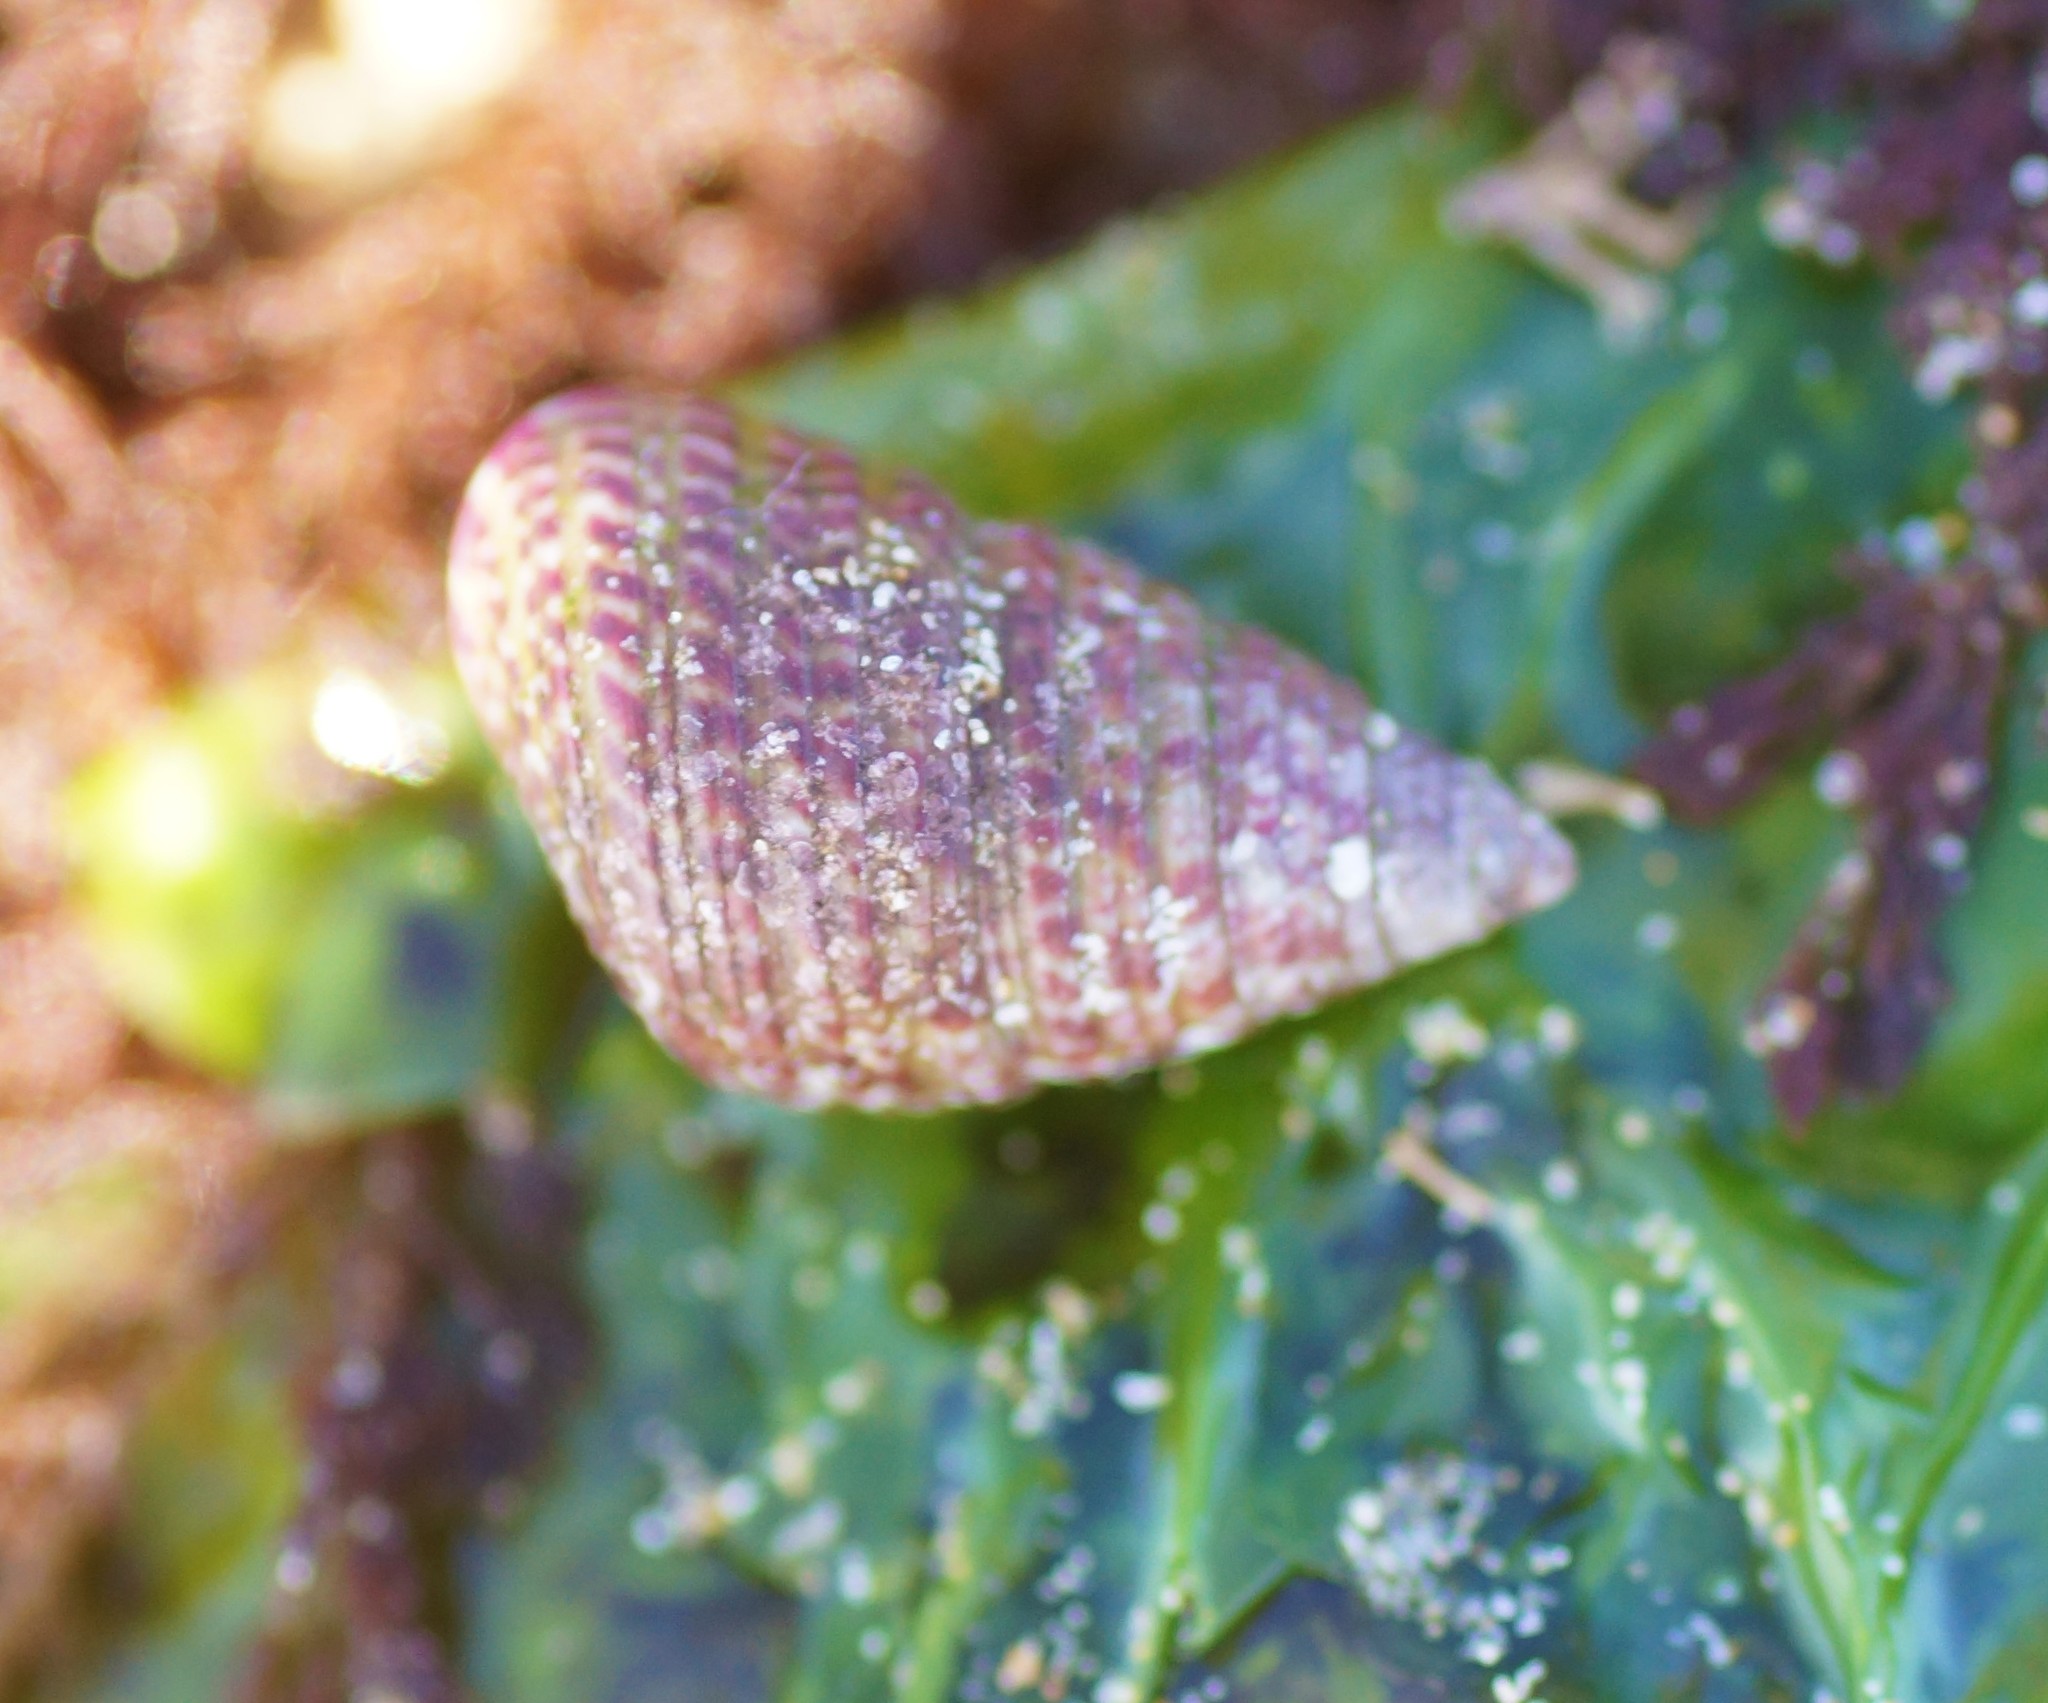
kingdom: Animalia
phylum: Mollusca
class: Gastropoda
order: Trochida
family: Trochidae
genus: Prothalotia
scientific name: Prothalotia pulcherrima
